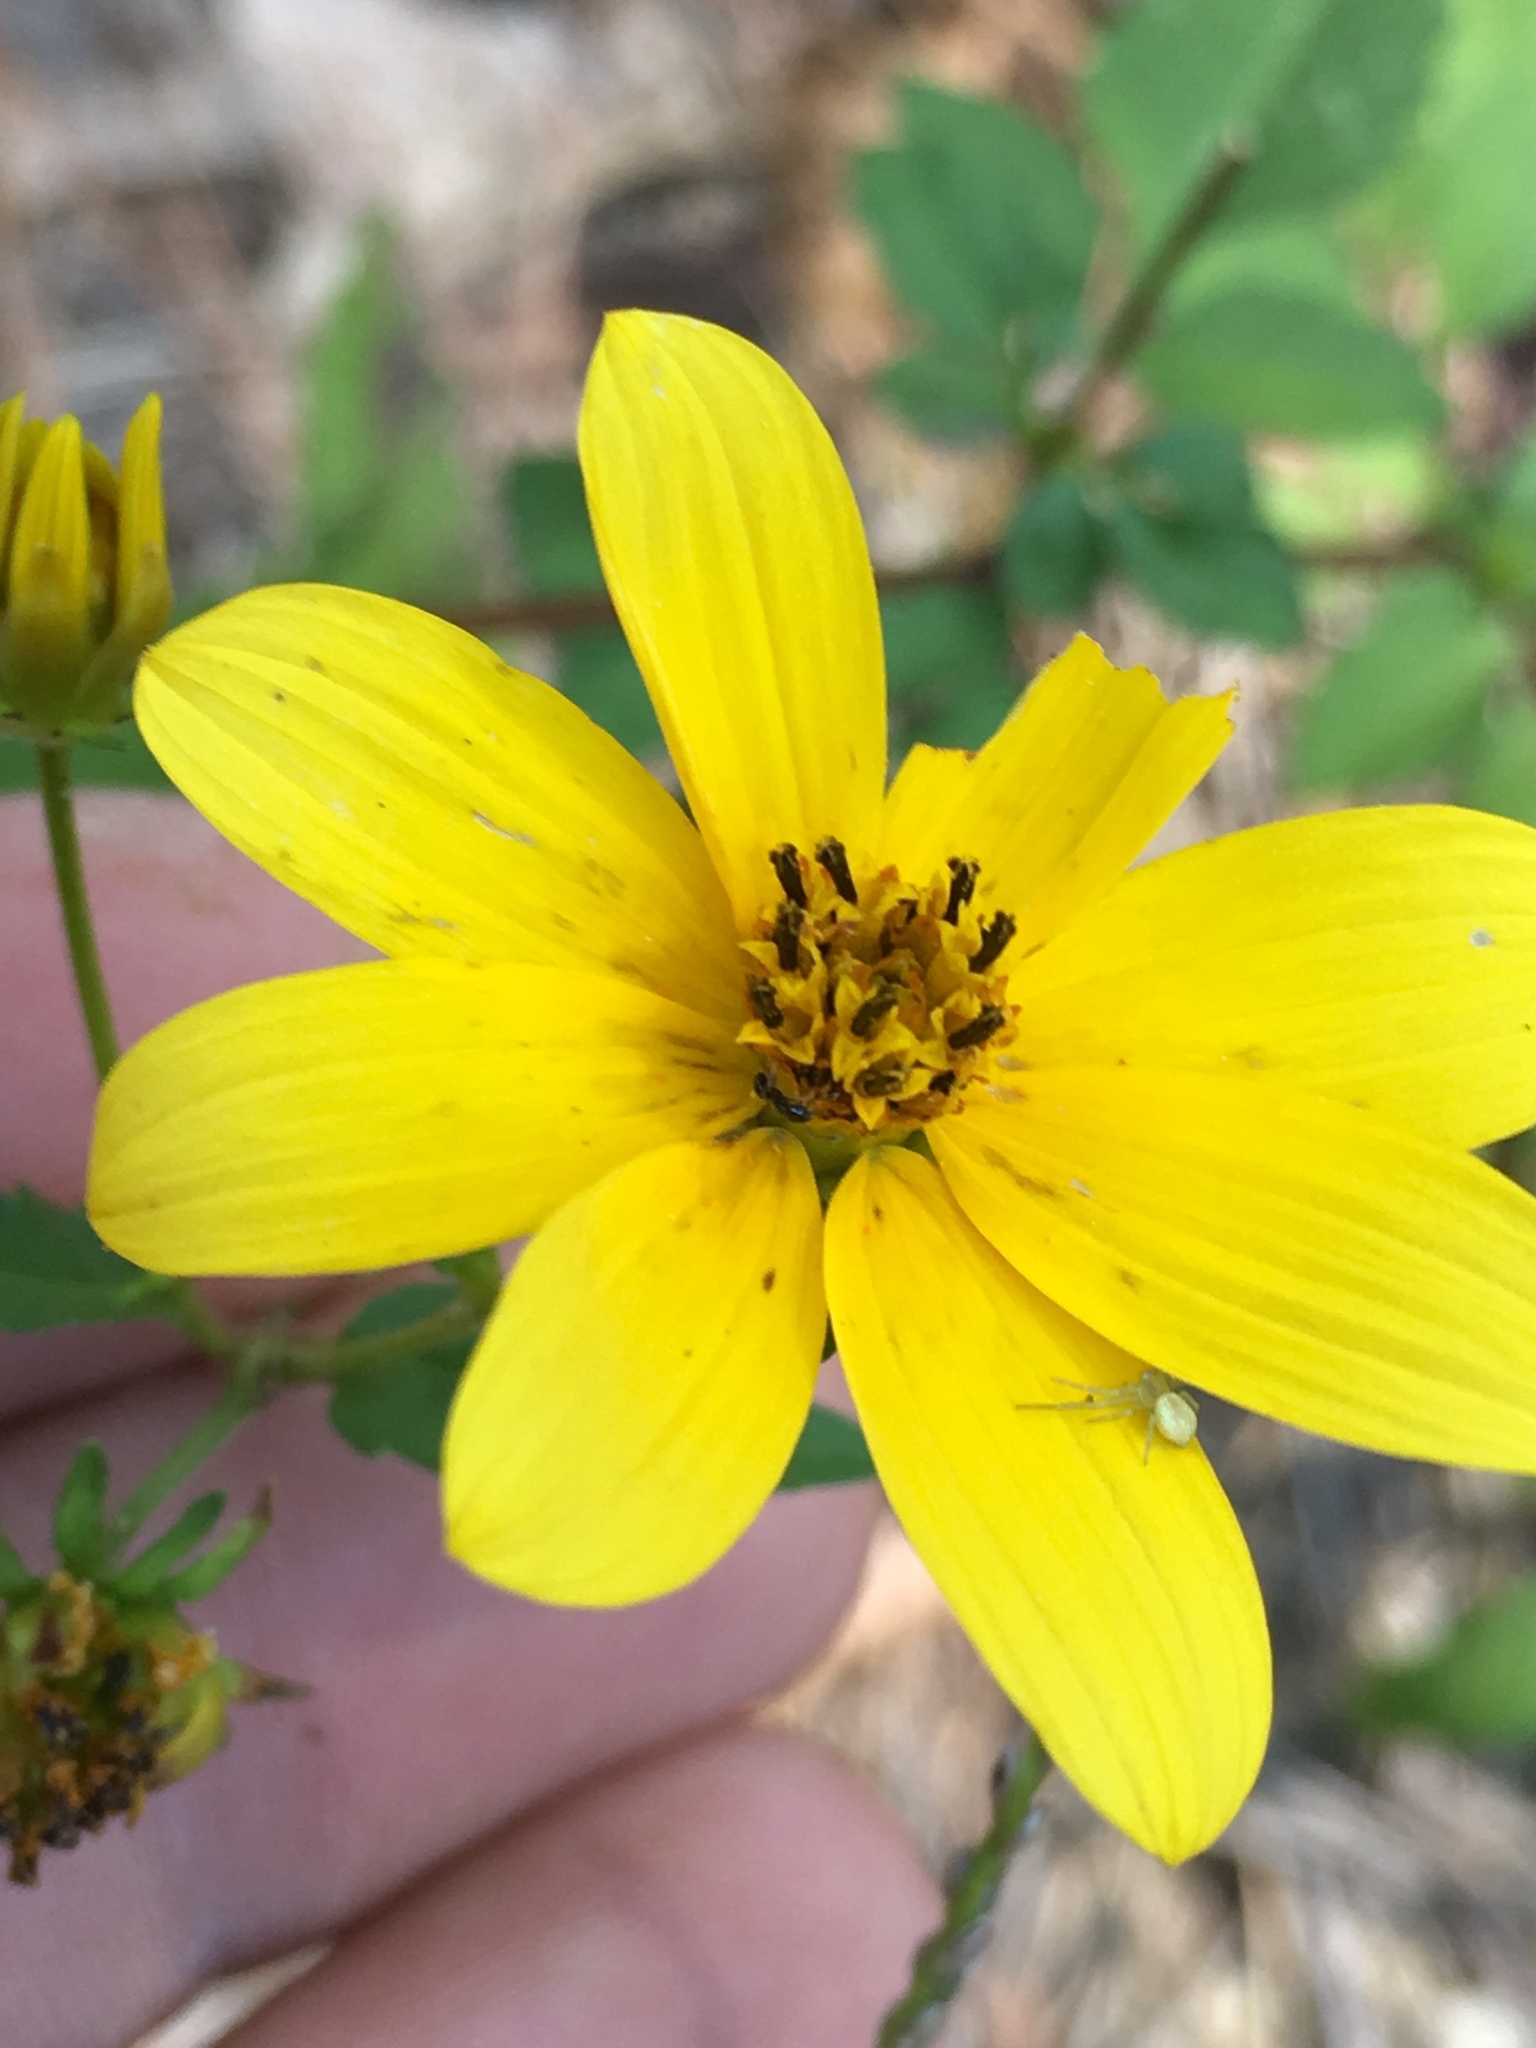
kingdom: Plantae
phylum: Tracheophyta
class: Magnoliopsida
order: Asterales
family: Asteraceae
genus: Bidens
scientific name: Bidens aristosa
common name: Western tickseed
